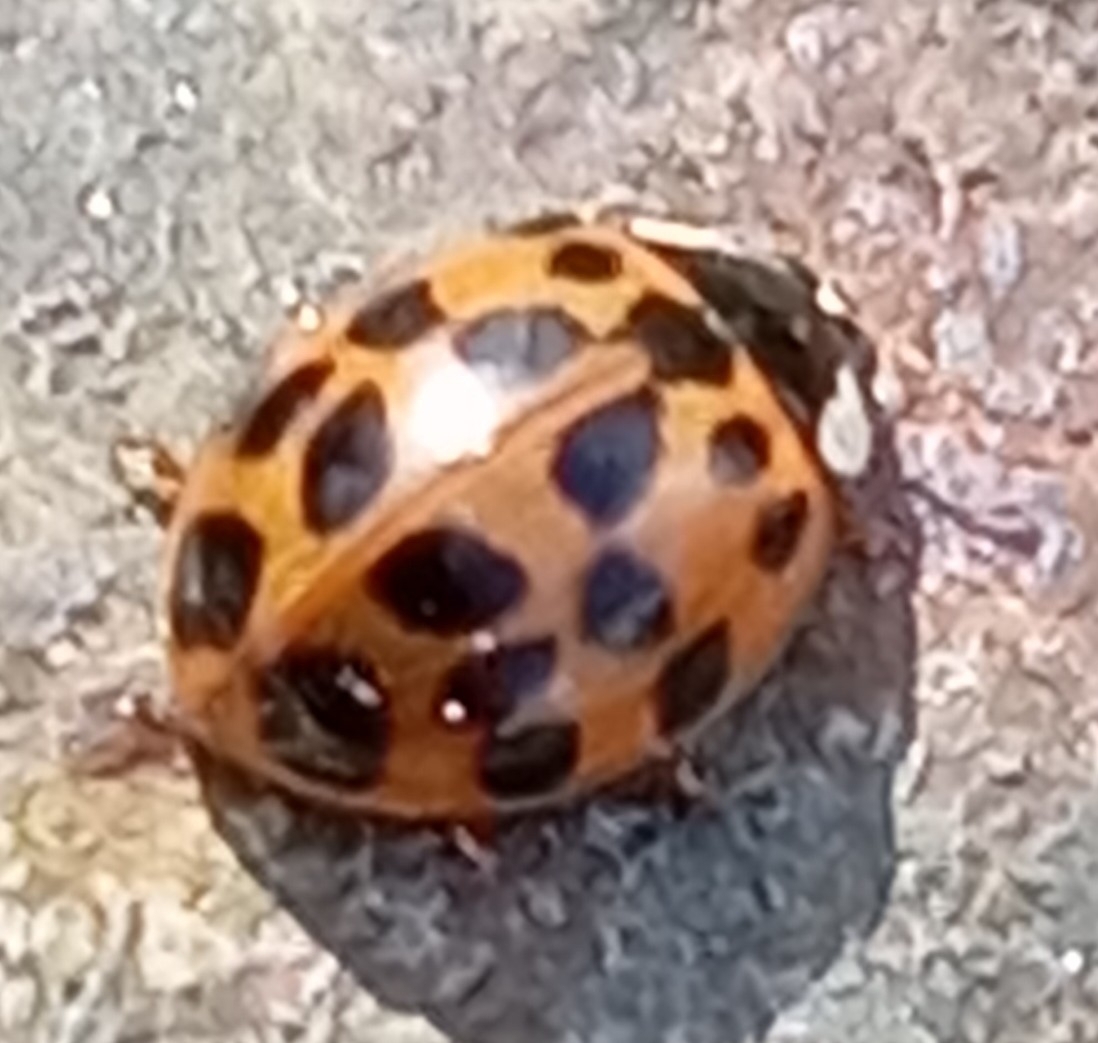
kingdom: Animalia
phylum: Arthropoda
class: Insecta
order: Coleoptera
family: Coccinellidae
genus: Harmonia
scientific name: Harmonia axyridis
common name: Harlequin ladybird
